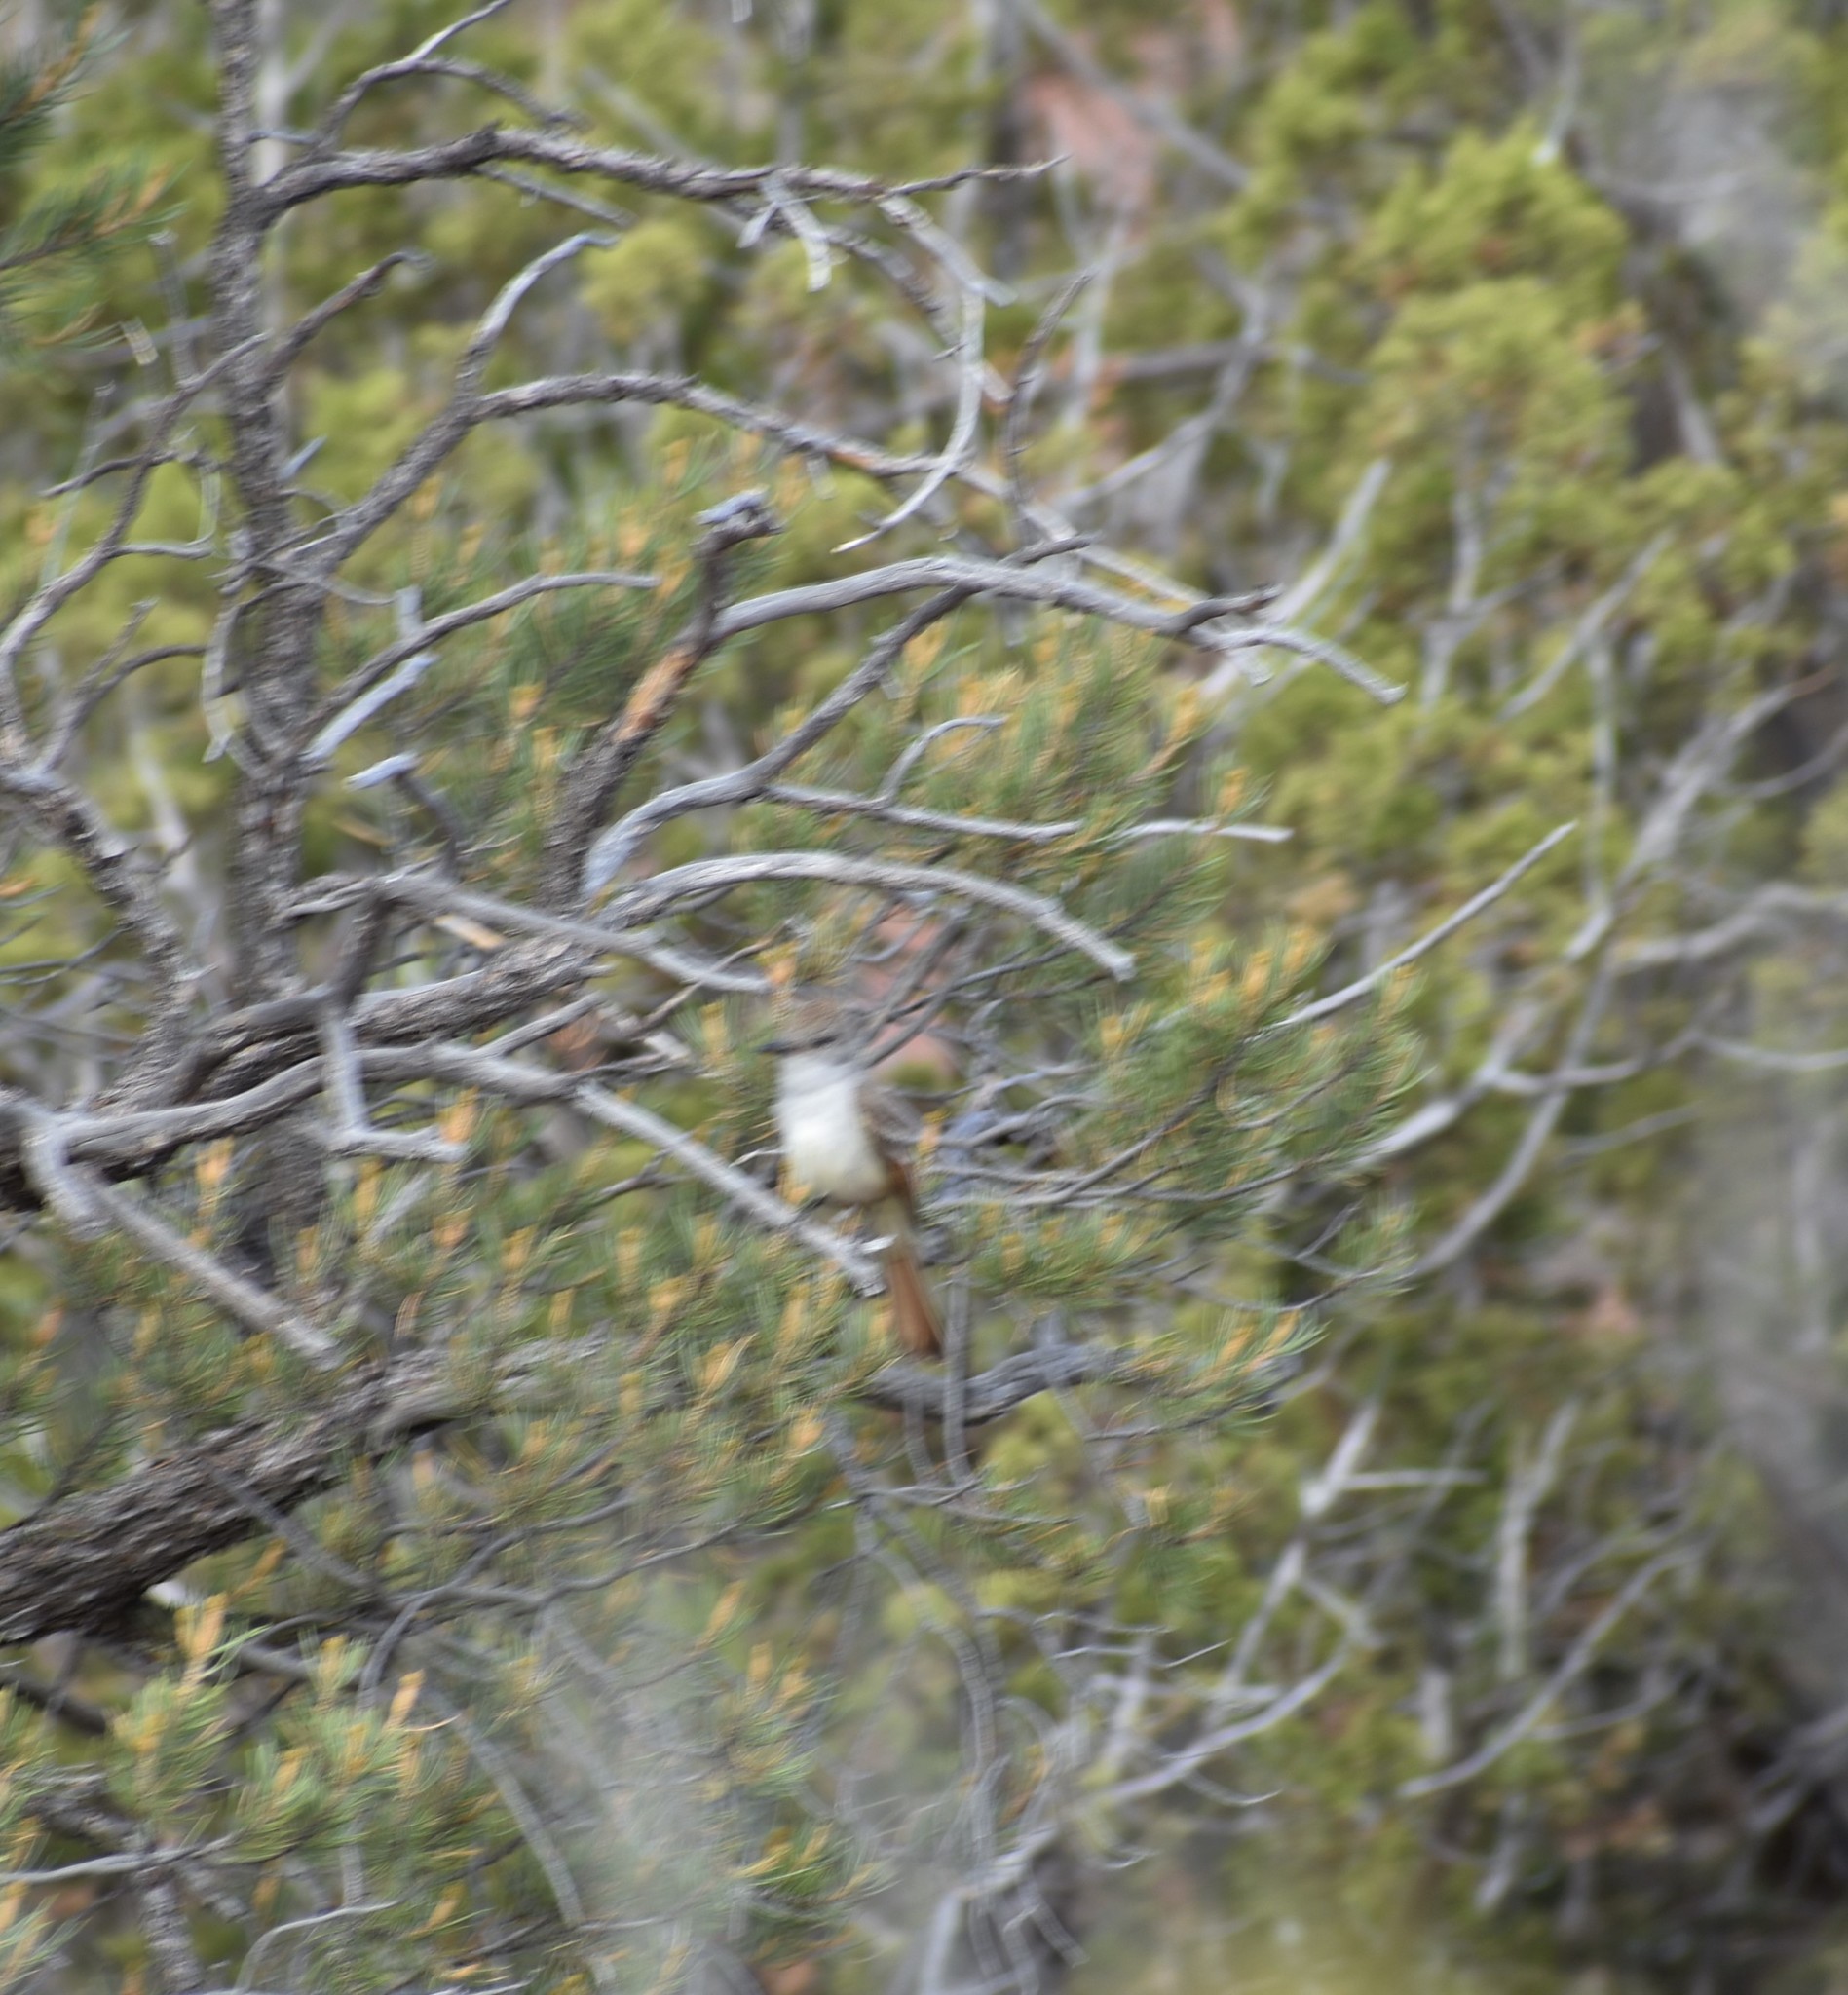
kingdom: Animalia
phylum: Chordata
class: Aves
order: Passeriformes
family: Tyrannidae
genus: Myiarchus
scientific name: Myiarchus cinerascens
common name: Ash-throated flycatcher
